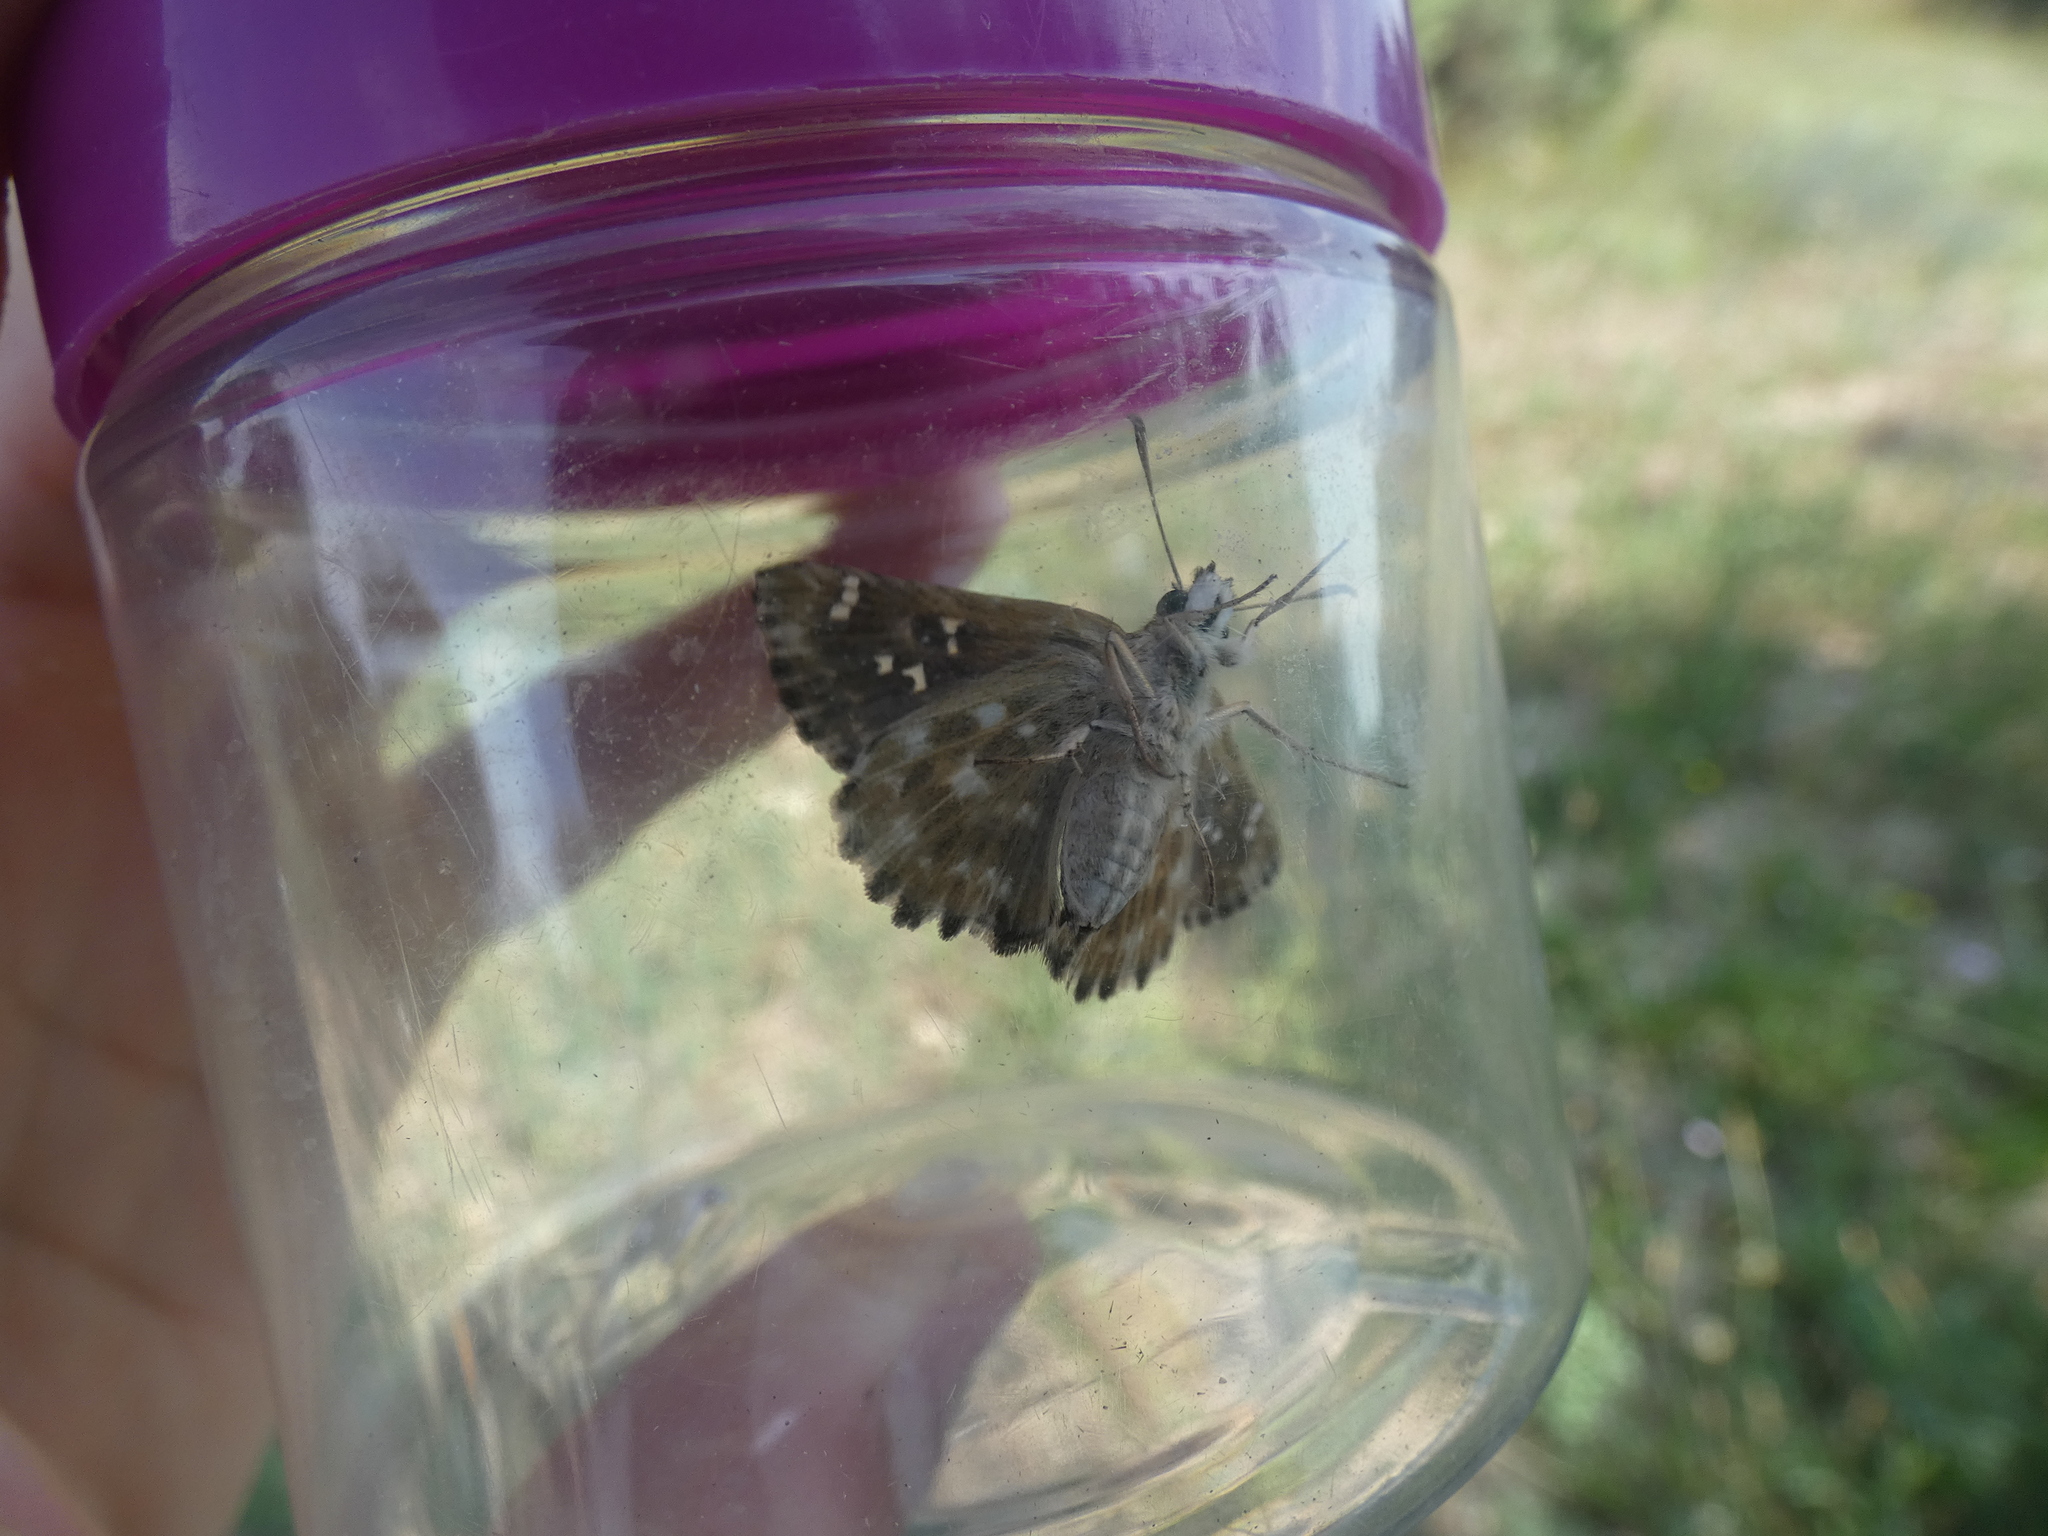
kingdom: Animalia
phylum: Arthropoda
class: Insecta
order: Lepidoptera
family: Hesperiidae
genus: Carcharodus
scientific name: Carcharodus alceae
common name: Mallow skipper
